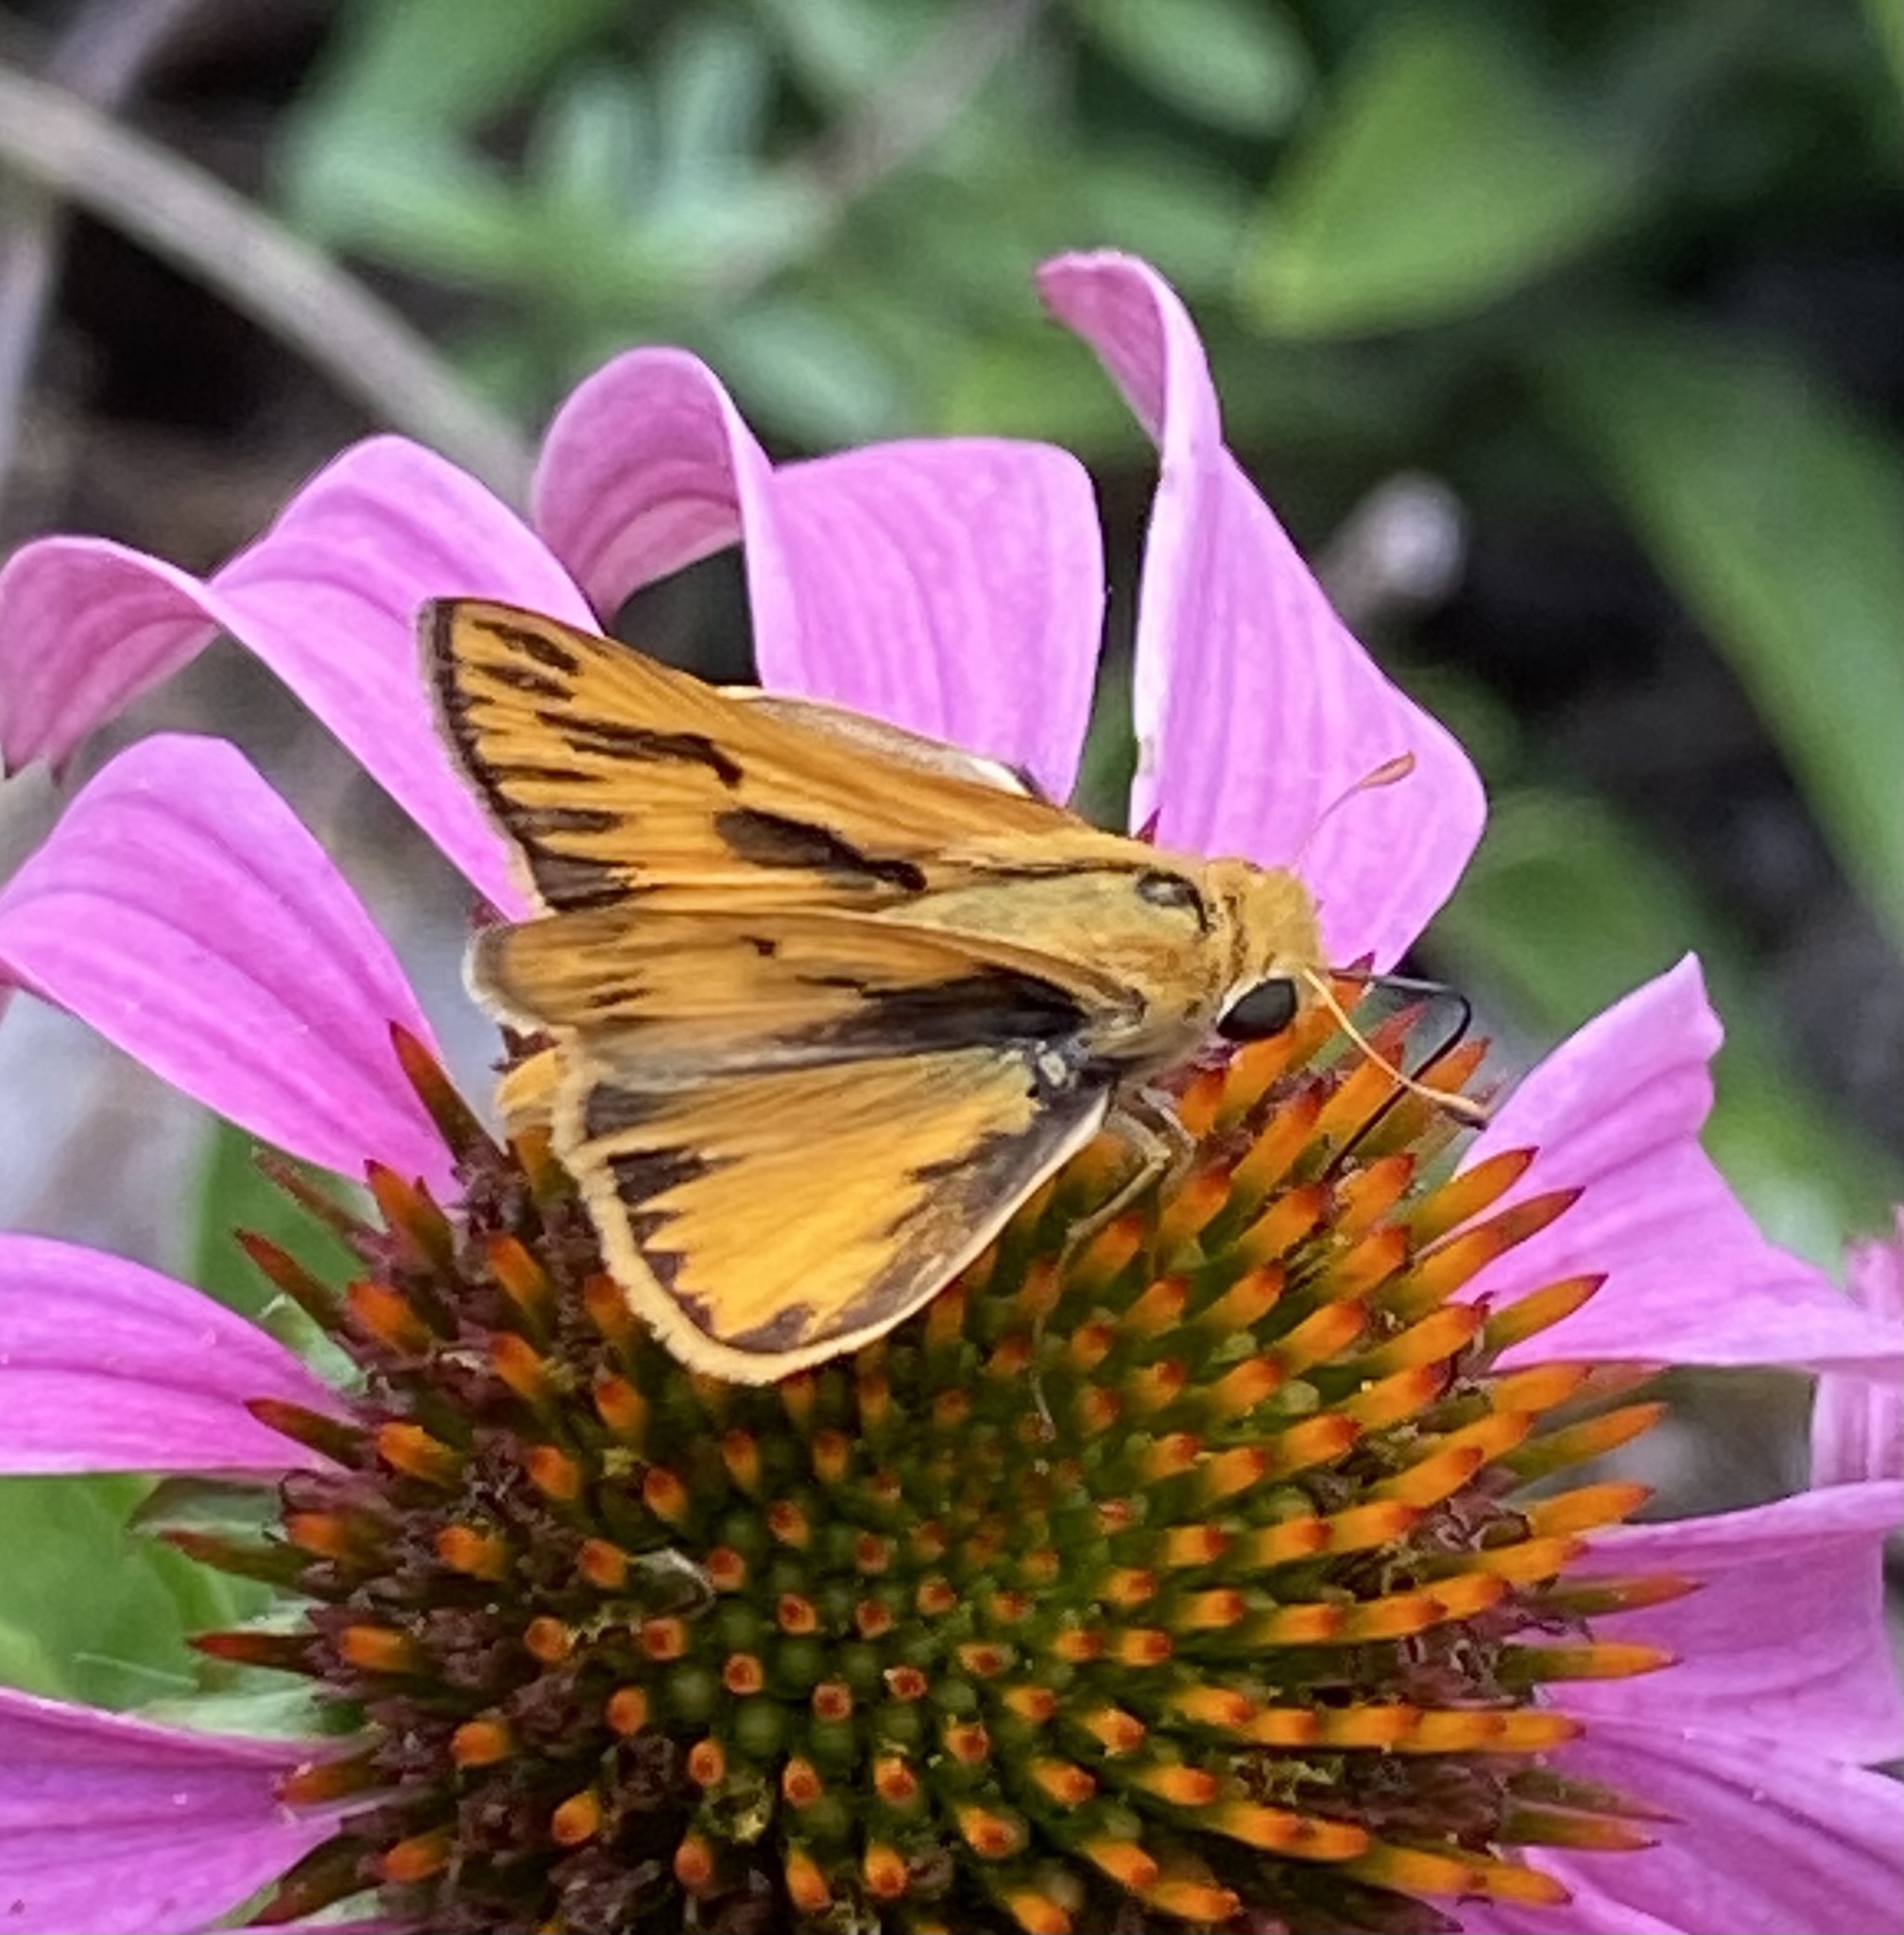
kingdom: Animalia
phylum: Arthropoda
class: Insecta
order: Lepidoptera
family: Hesperiidae
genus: Hylephila
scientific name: Hylephila phyleus
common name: Fiery skipper
